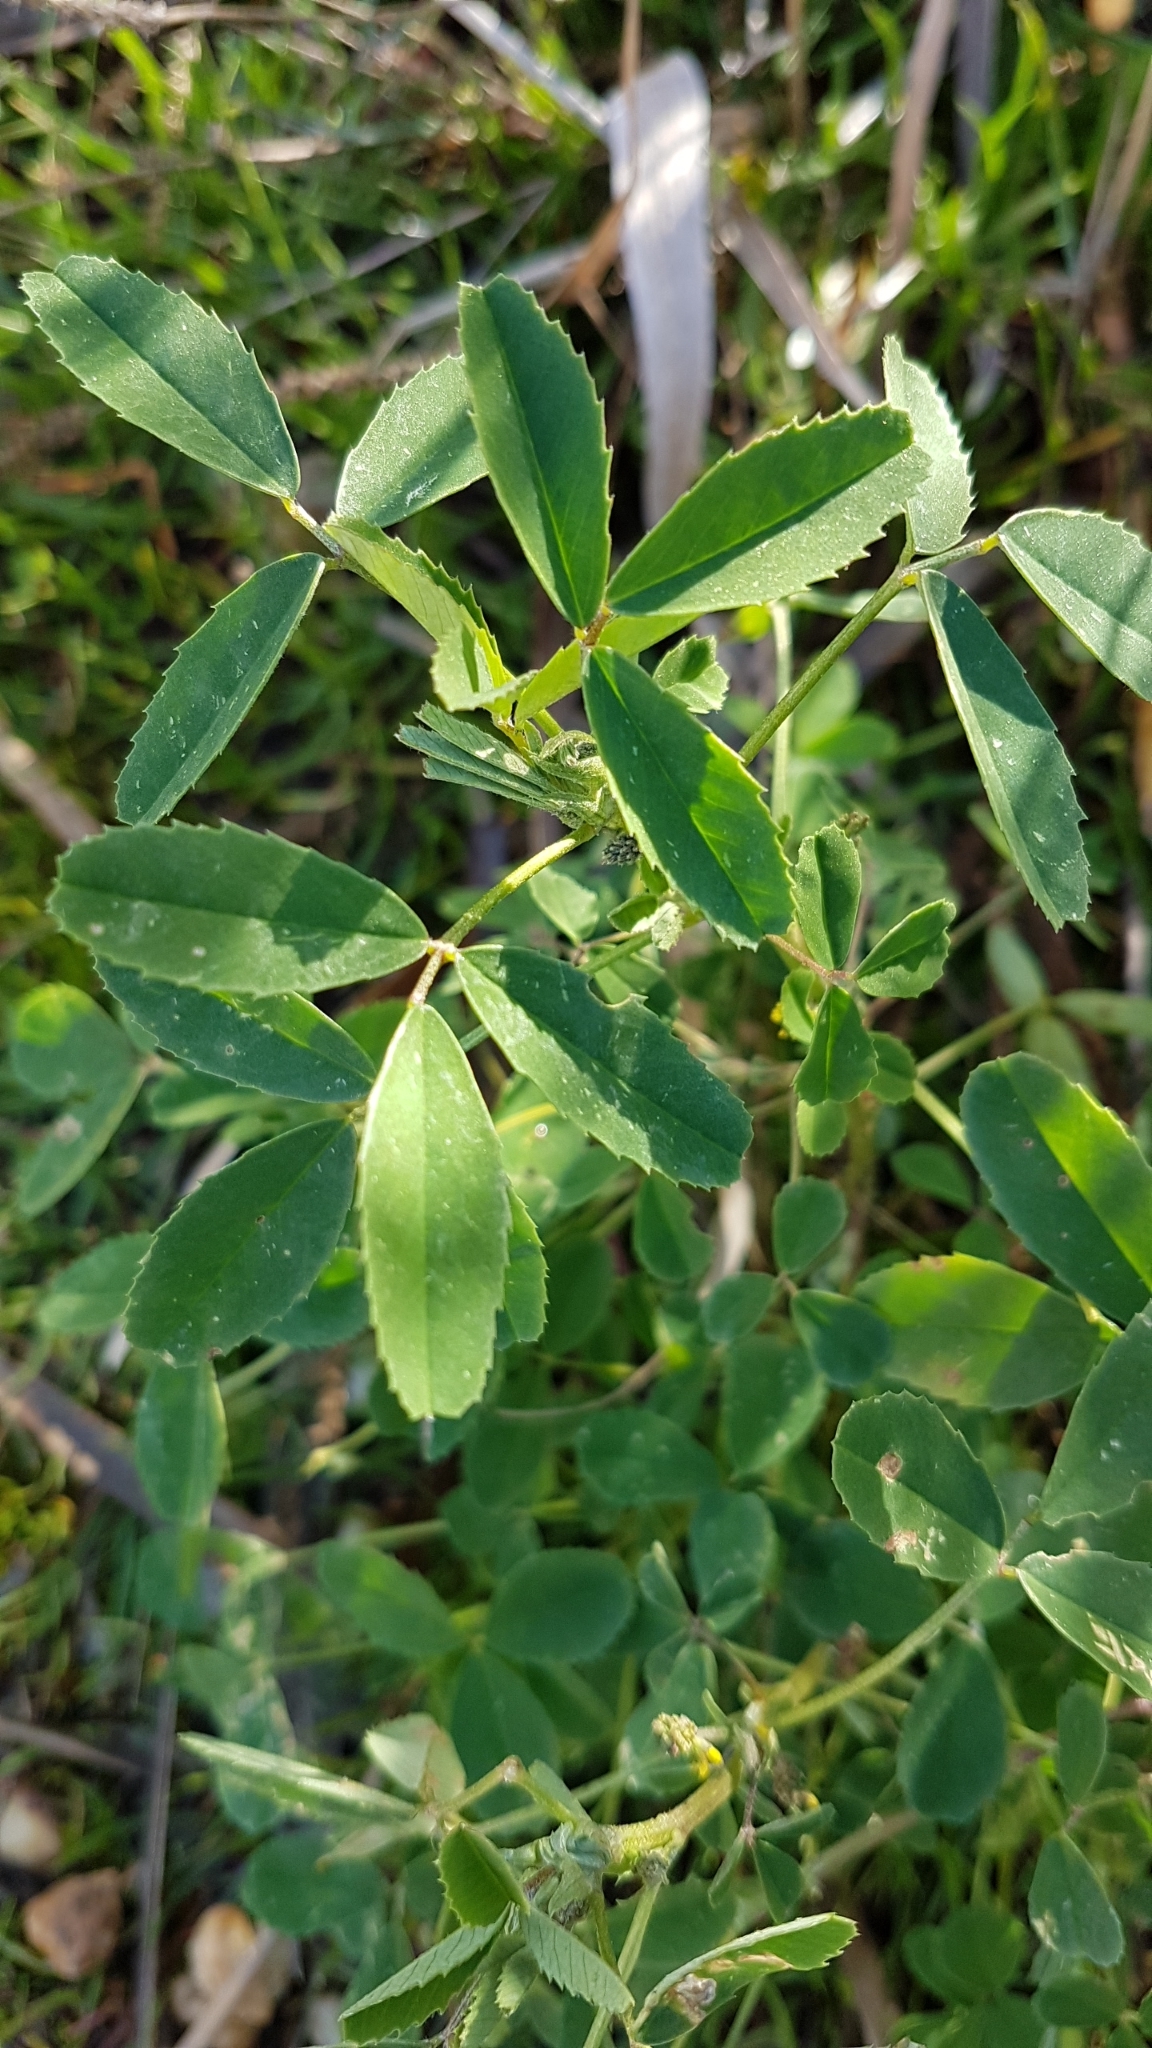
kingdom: Plantae
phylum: Tracheophyta
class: Magnoliopsida
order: Fabales
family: Fabaceae
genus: Melilotus
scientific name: Melilotus indicus
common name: Small melilot
